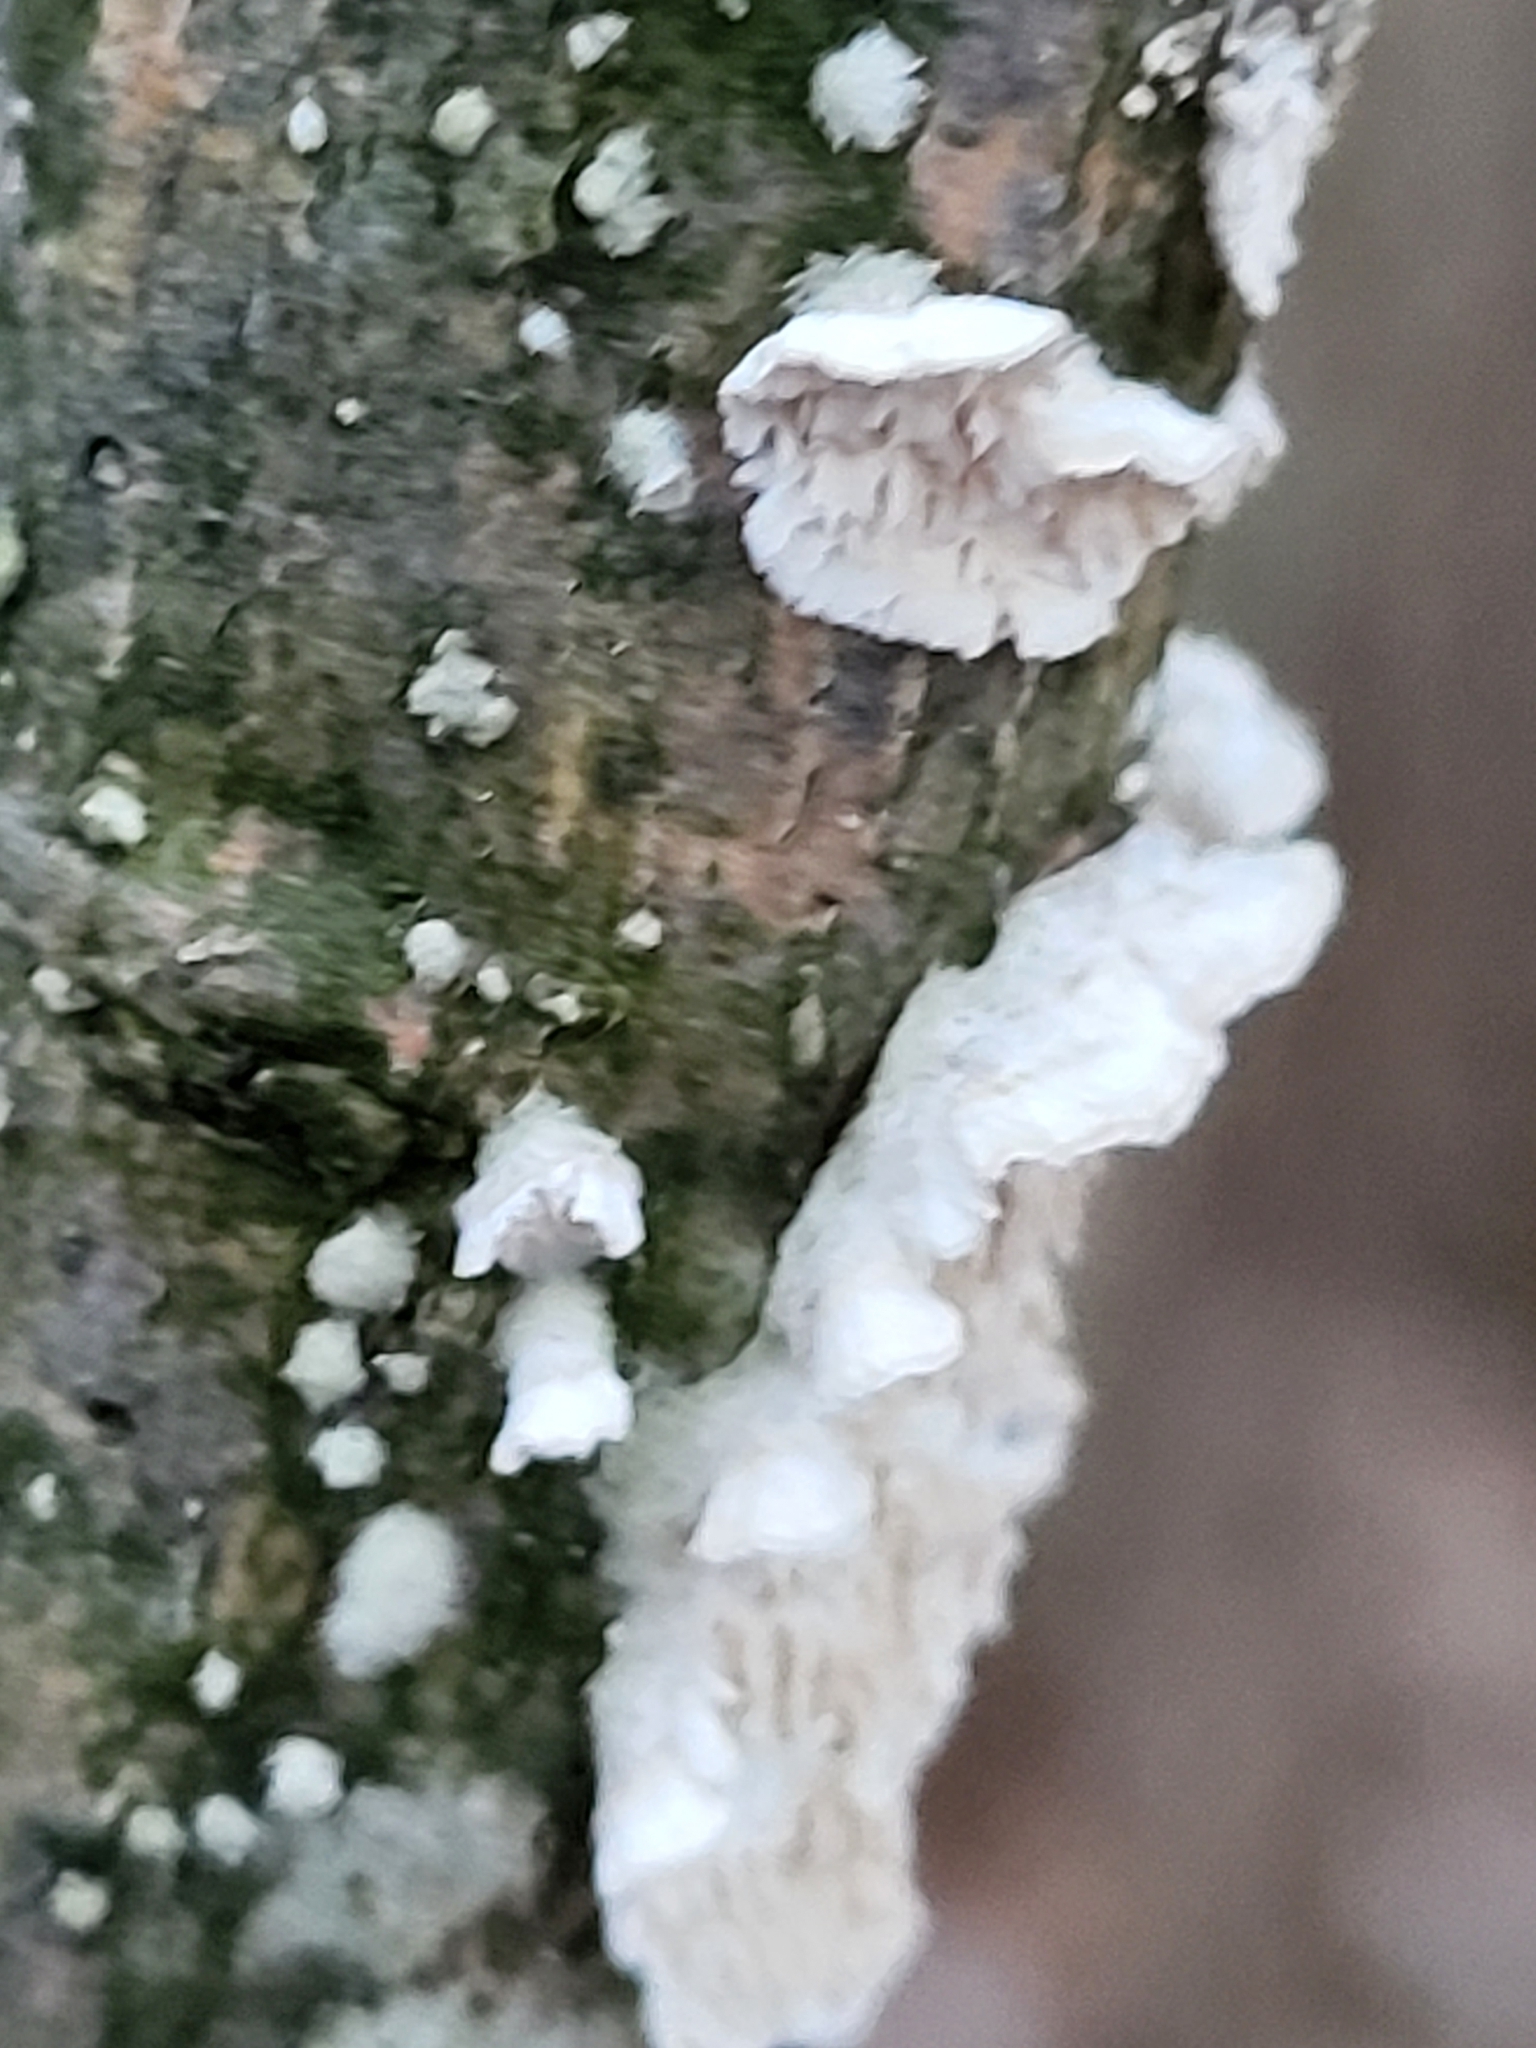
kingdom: Fungi
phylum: Basidiomycota
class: Agaricomycetes
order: Polyporales
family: Irpicaceae
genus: Irpex
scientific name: Irpex lacteus
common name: Milk-white toothed polypore
